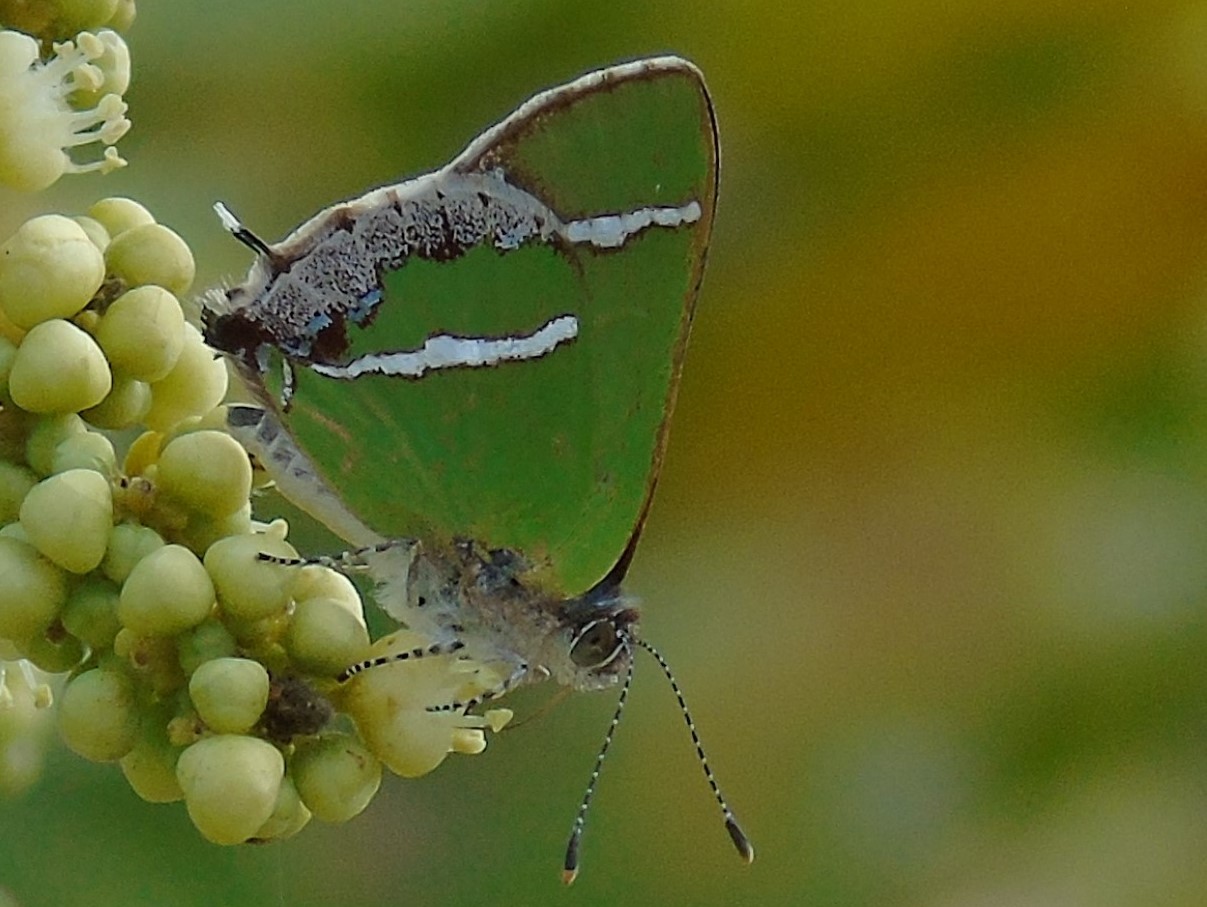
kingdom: Animalia
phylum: Arthropoda
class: Insecta
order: Lepidoptera
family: Lycaenidae
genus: Chlorostrymon
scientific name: Chlorostrymon simaethis
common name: Silver-banded hairstreak
